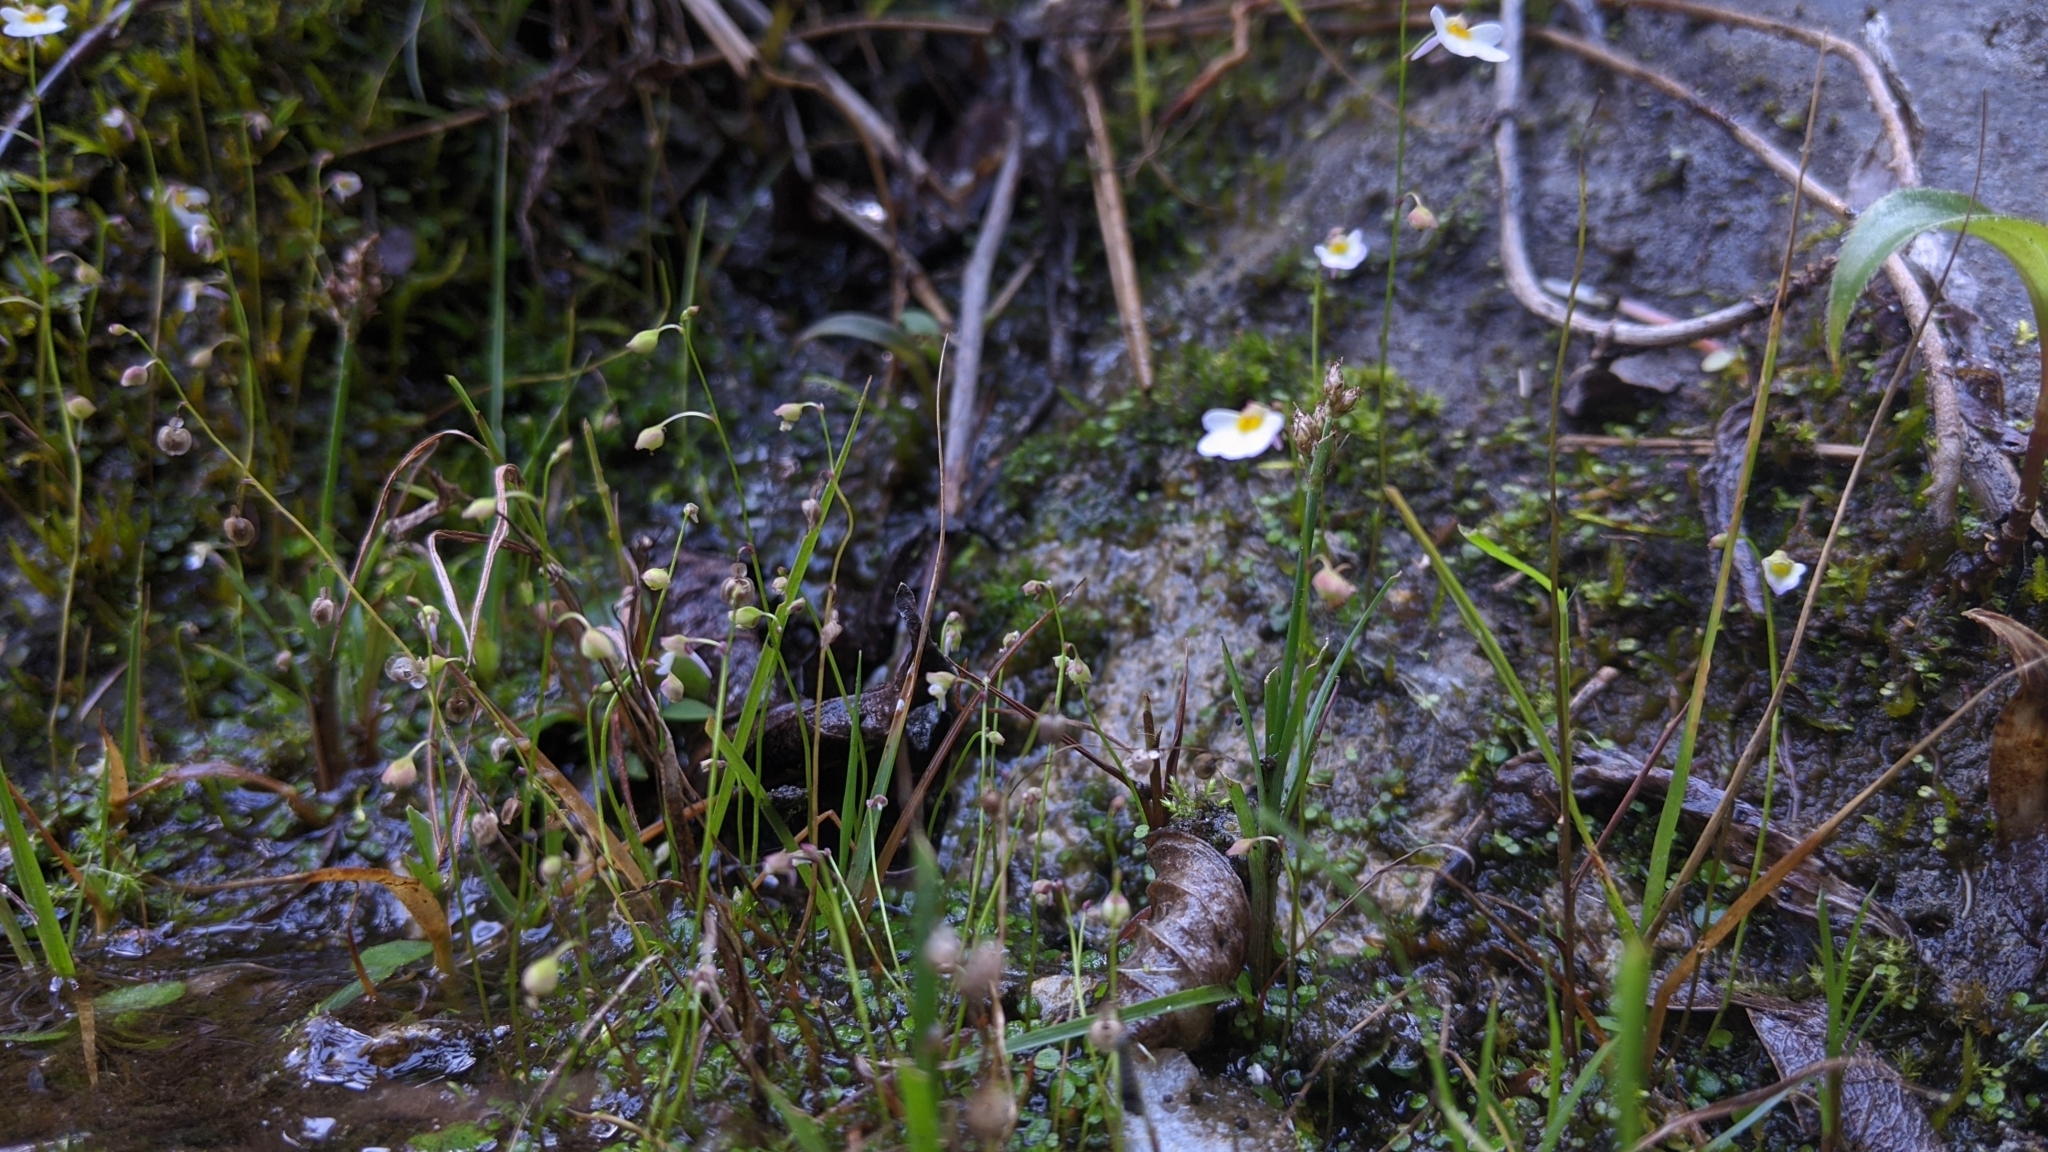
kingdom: Plantae
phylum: Tracheophyta
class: Magnoliopsida
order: Lamiales
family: Lentibulariaceae
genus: Utricularia
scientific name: Utricularia striatula
